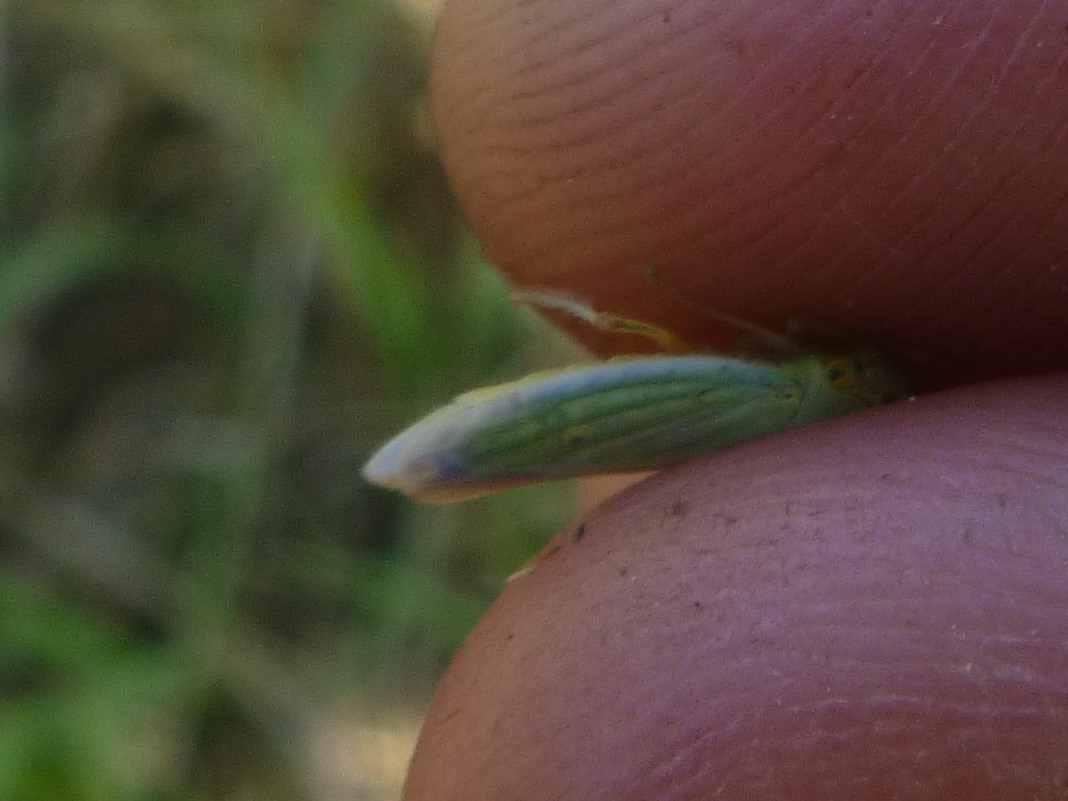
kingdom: Animalia
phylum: Arthropoda
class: Insecta
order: Hemiptera
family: Cicadellidae
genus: Cicadella
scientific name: Cicadella viridis
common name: Leafhopper
